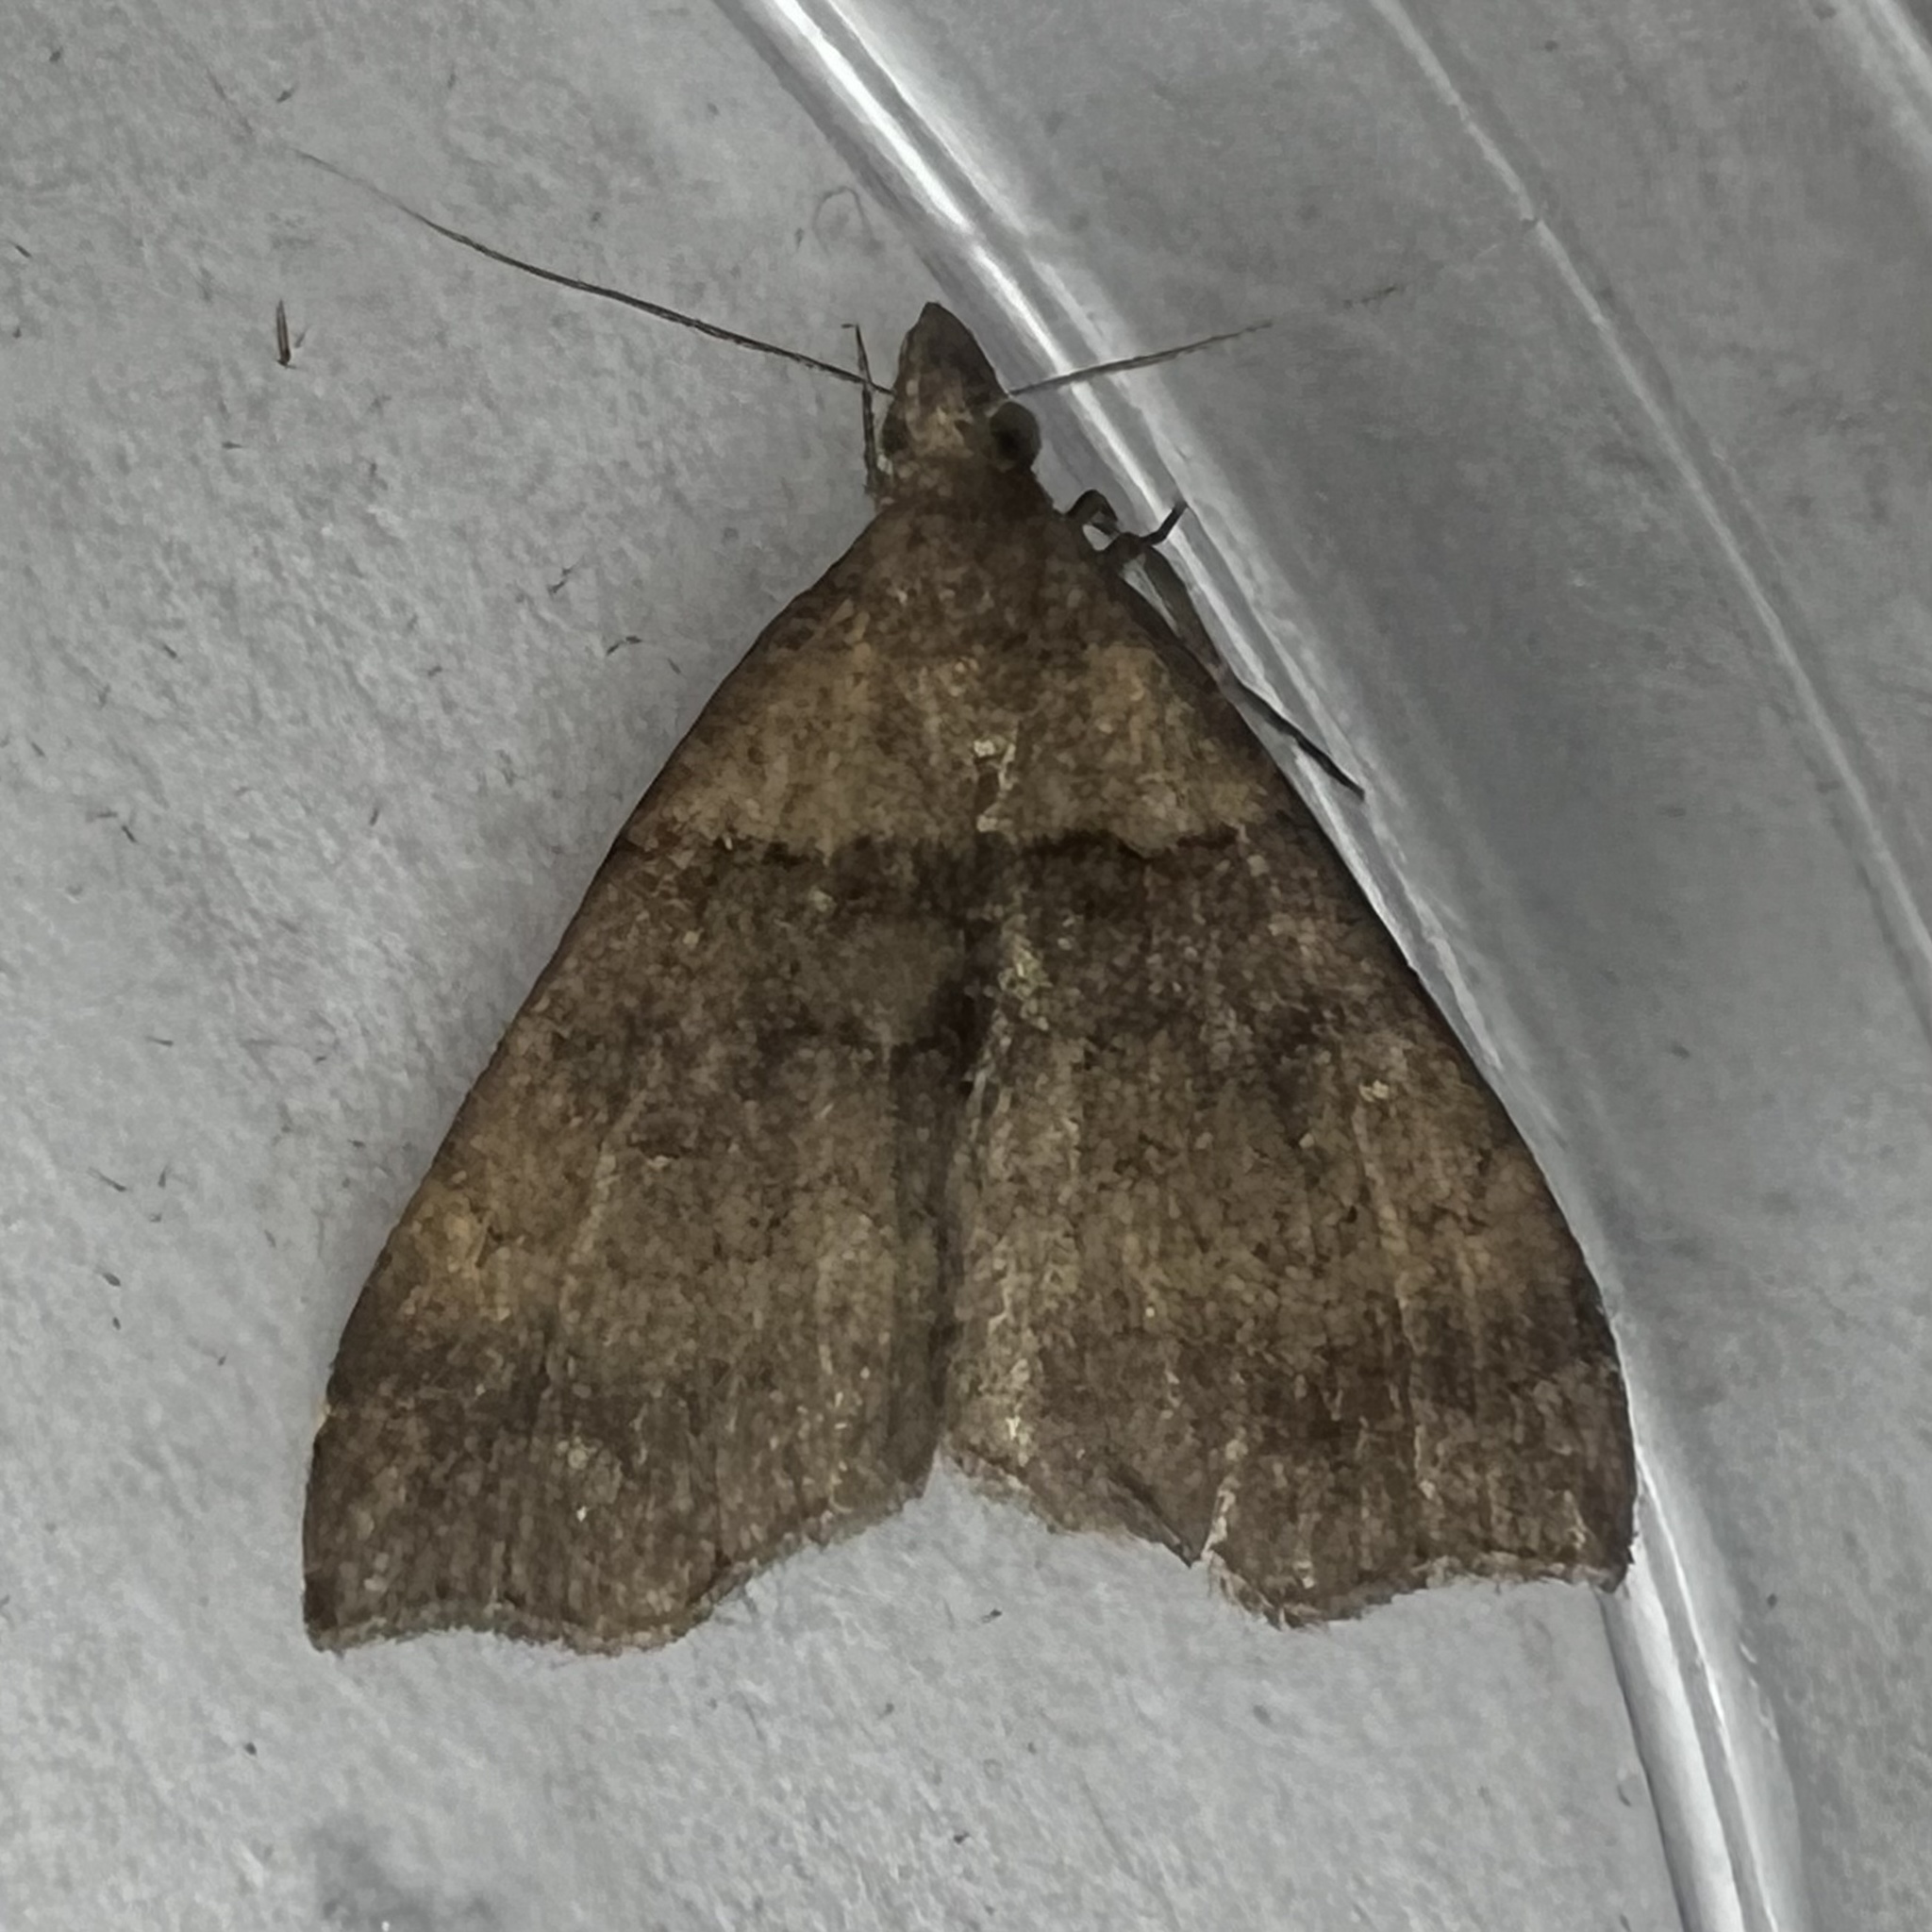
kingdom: Animalia
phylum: Arthropoda
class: Insecta
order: Lepidoptera
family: Erebidae
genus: Lascoria
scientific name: Lascoria ambigualis
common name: Ambiguous moth
